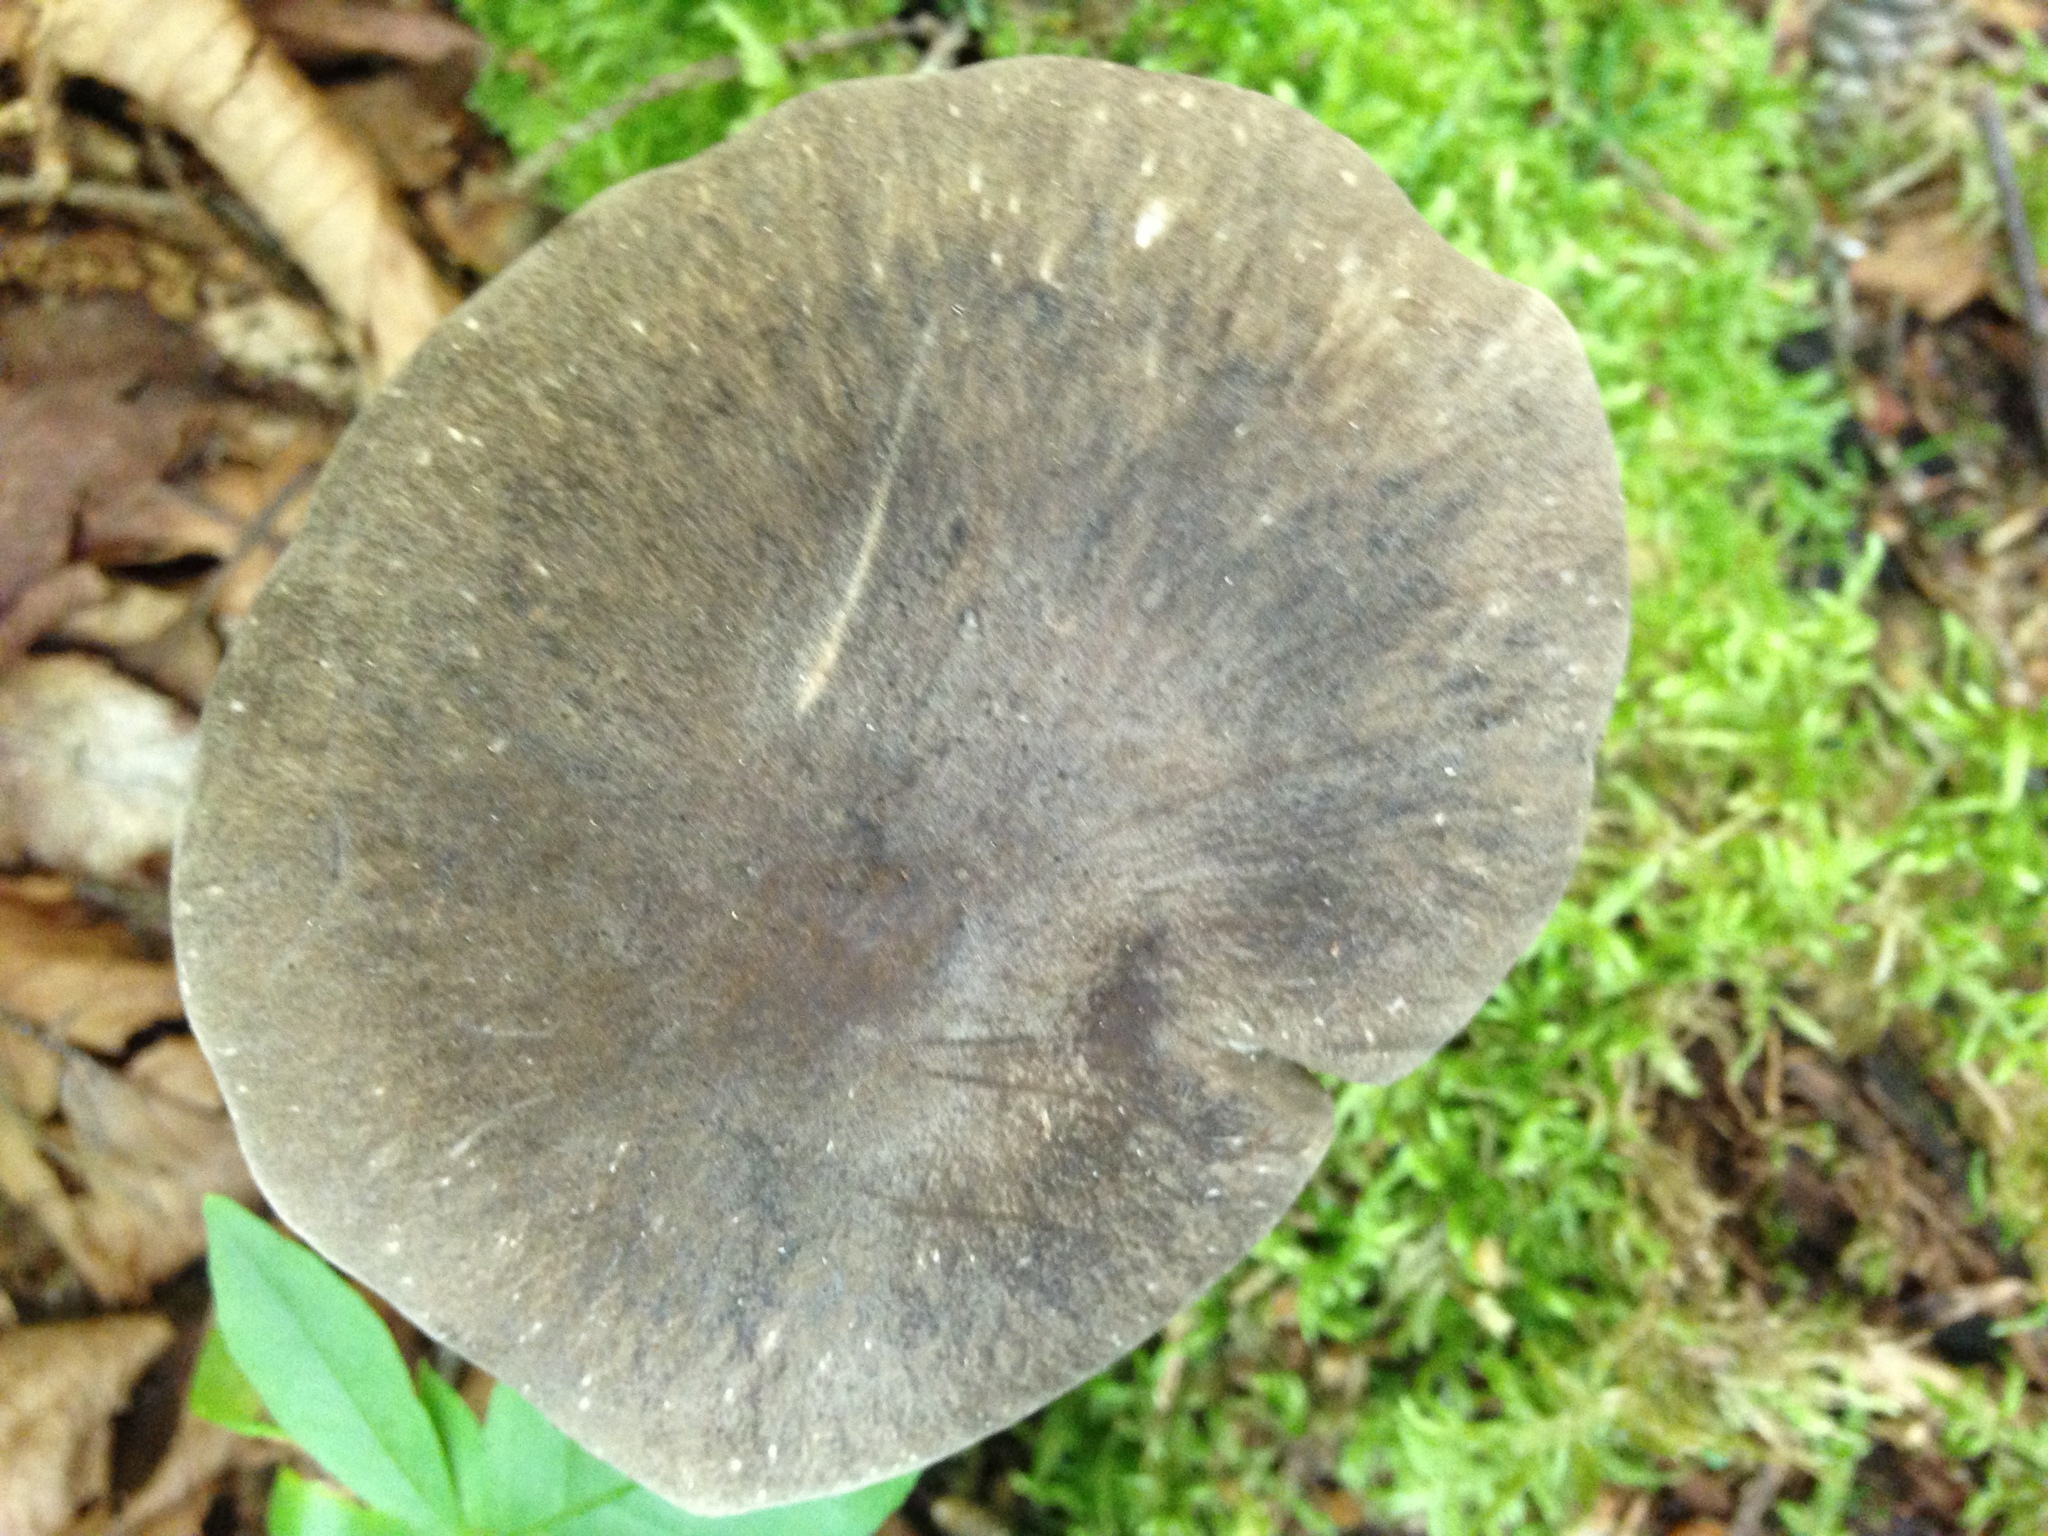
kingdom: Fungi
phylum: Basidiomycota
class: Agaricomycetes
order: Agaricales
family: Tricholomataceae
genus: Megacollybia
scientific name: Megacollybia subfurfuracea
